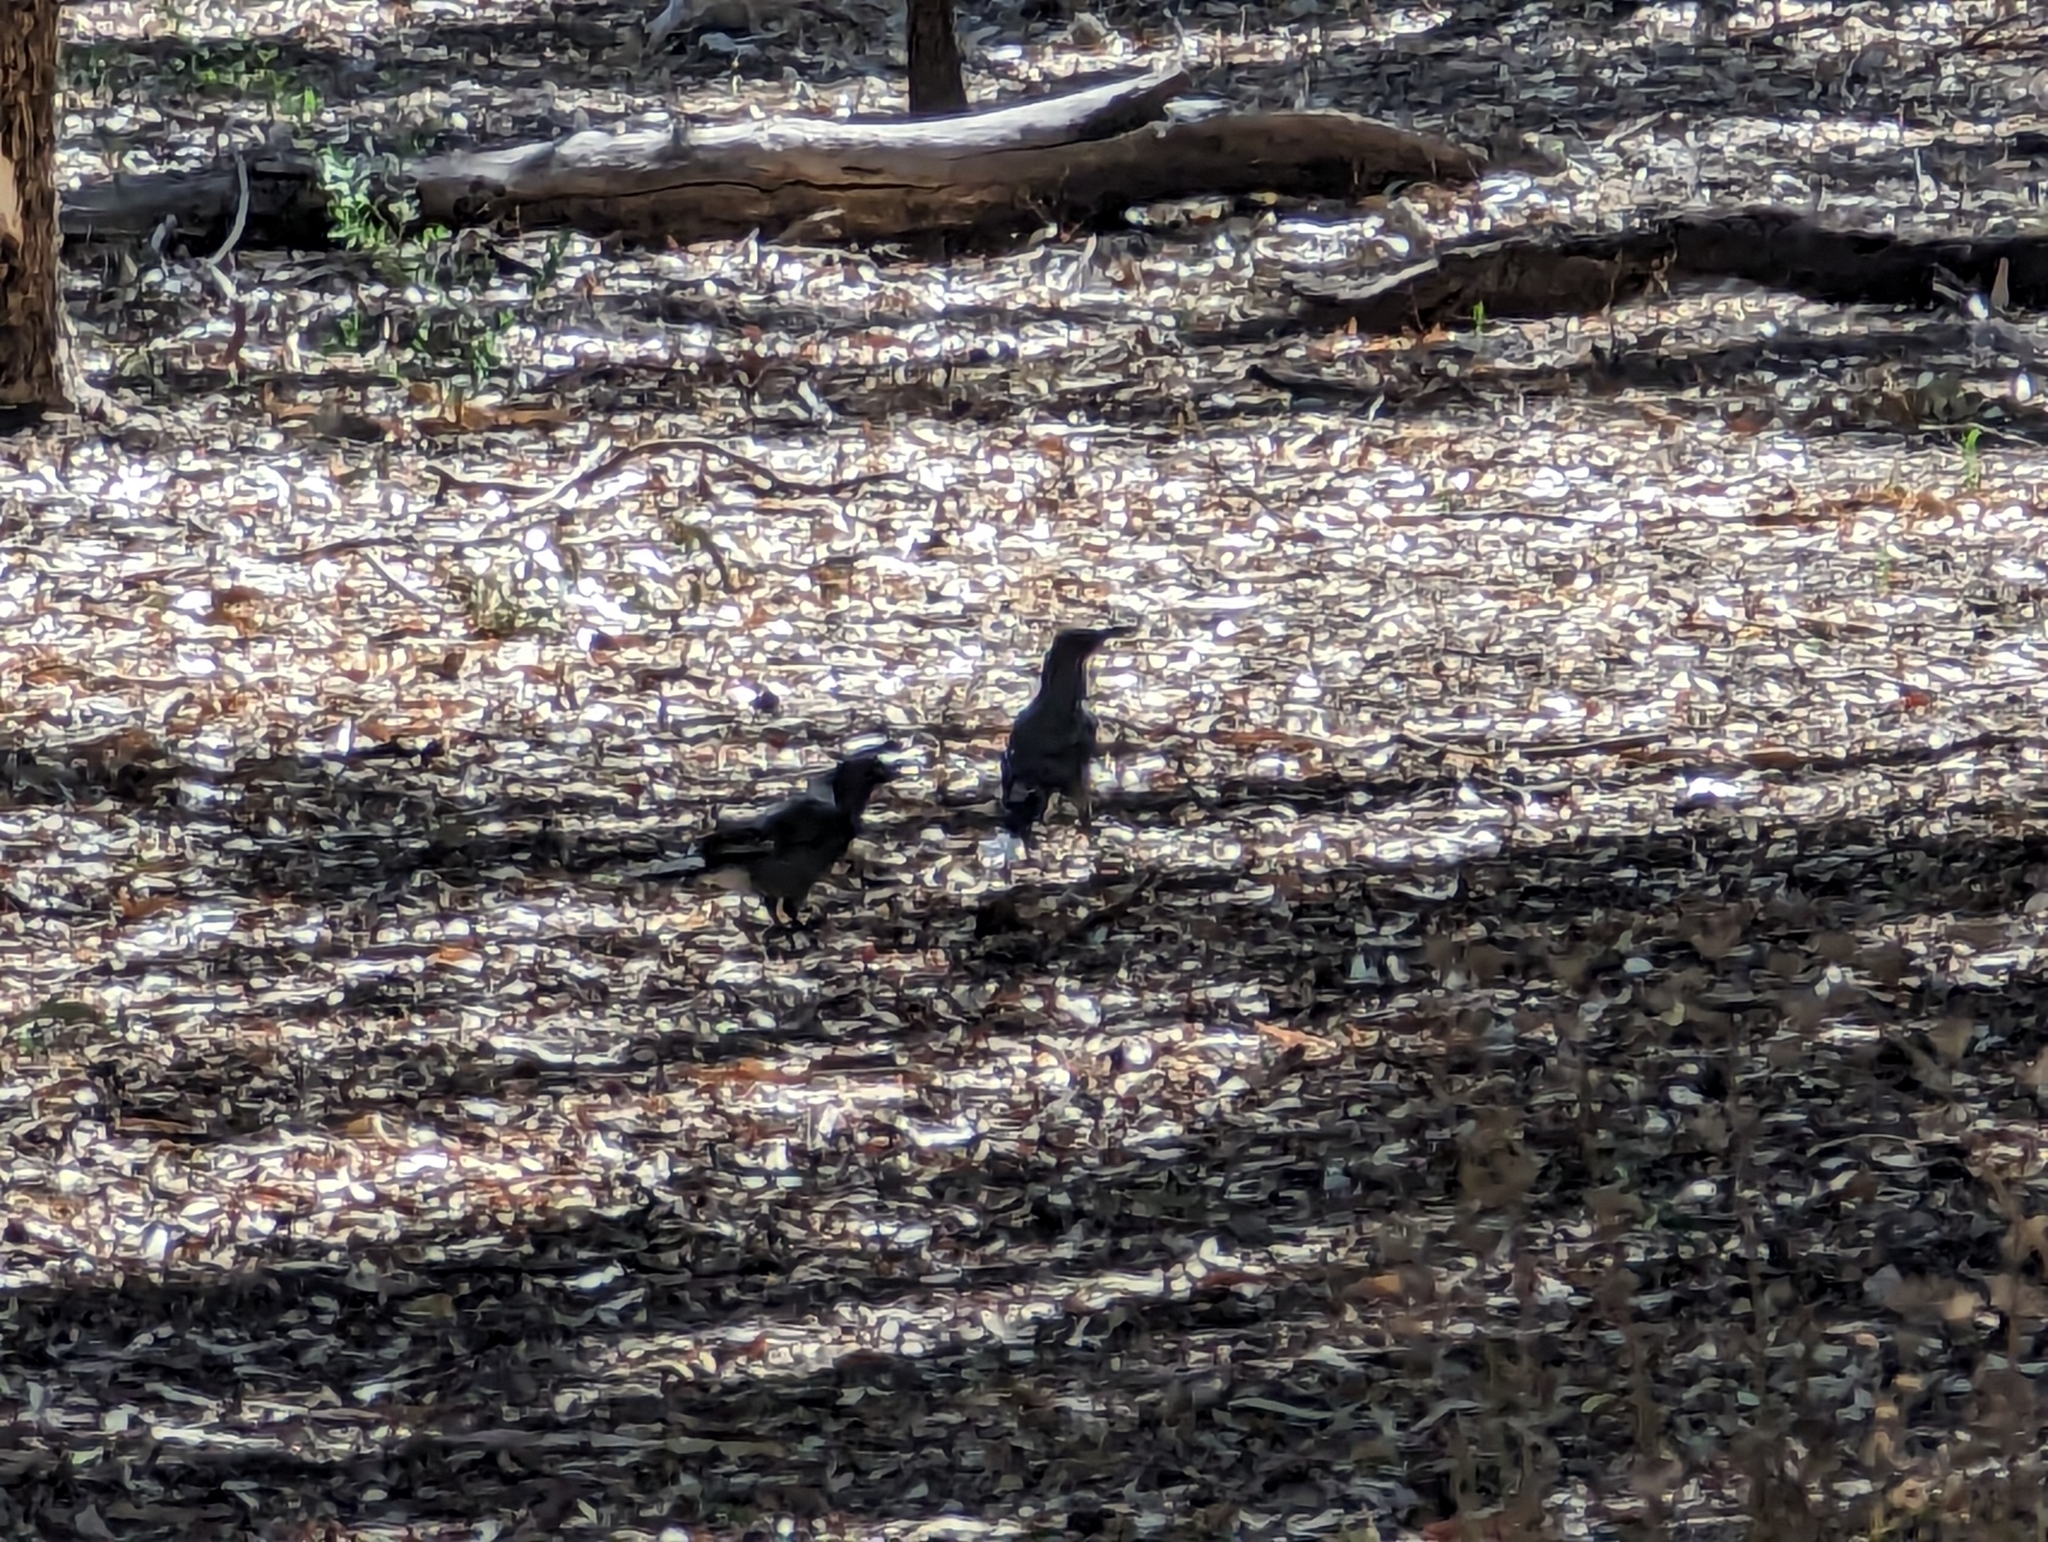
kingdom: Animalia
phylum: Chordata
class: Aves
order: Passeriformes
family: Cracticidae
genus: Strepera
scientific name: Strepera versicolor
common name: Grey currawong
